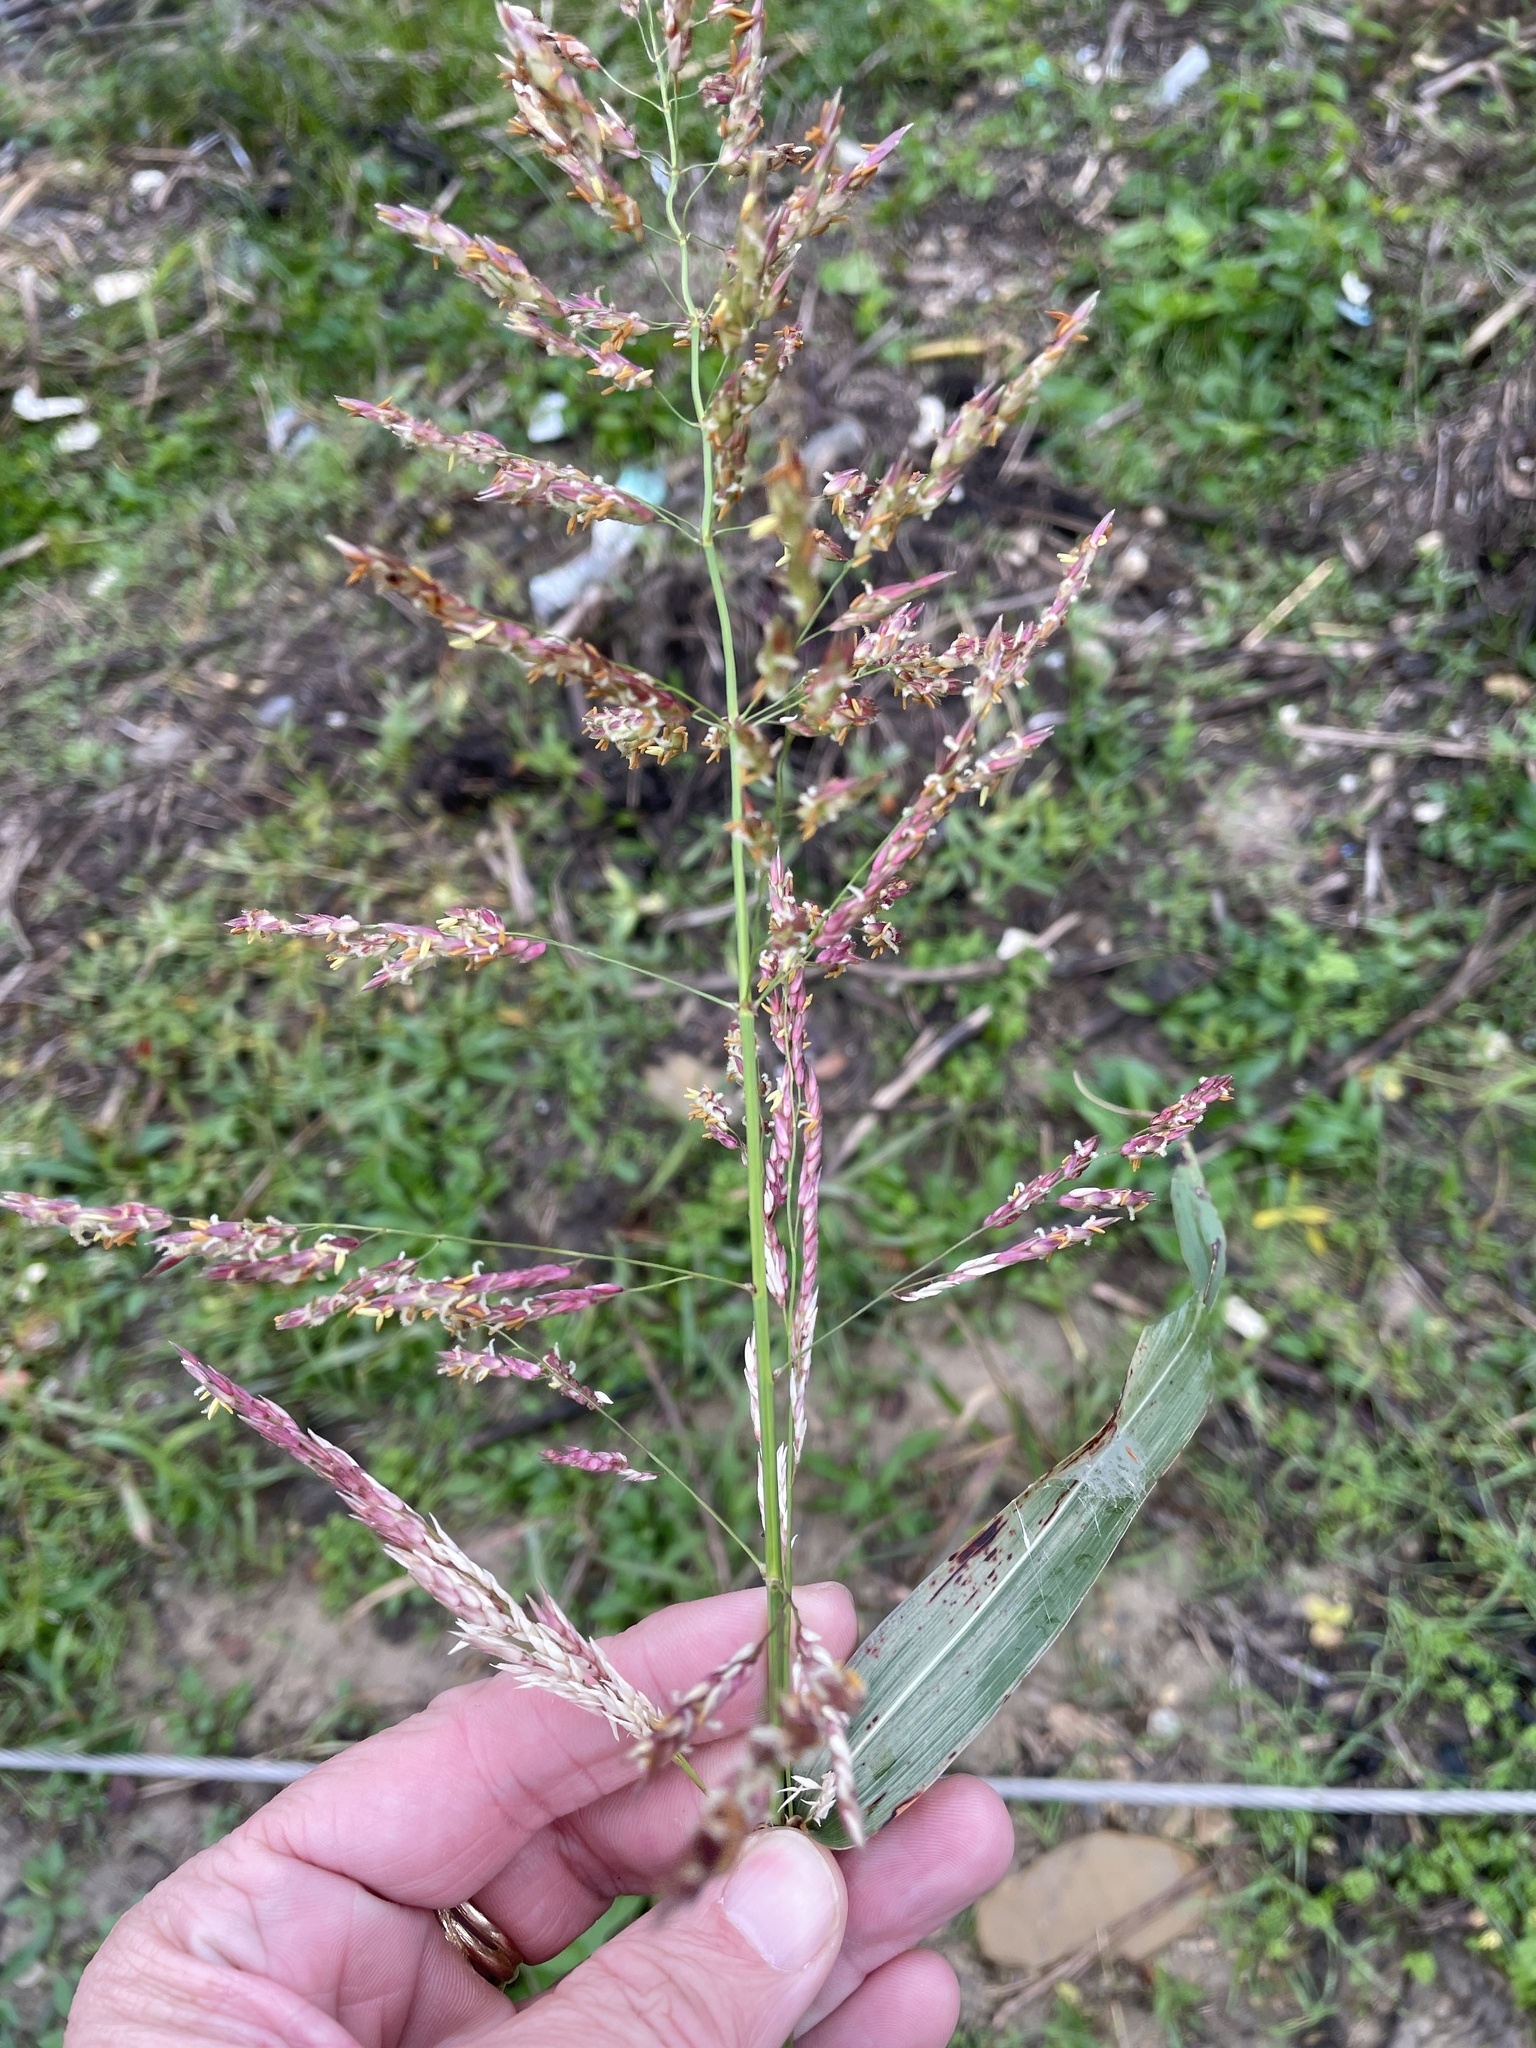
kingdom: Plantae
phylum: Tracheophyta
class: Liliopsida
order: Poales
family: Poaceae
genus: Sorghum
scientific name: Sorghum halepense
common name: Johnson-grass
